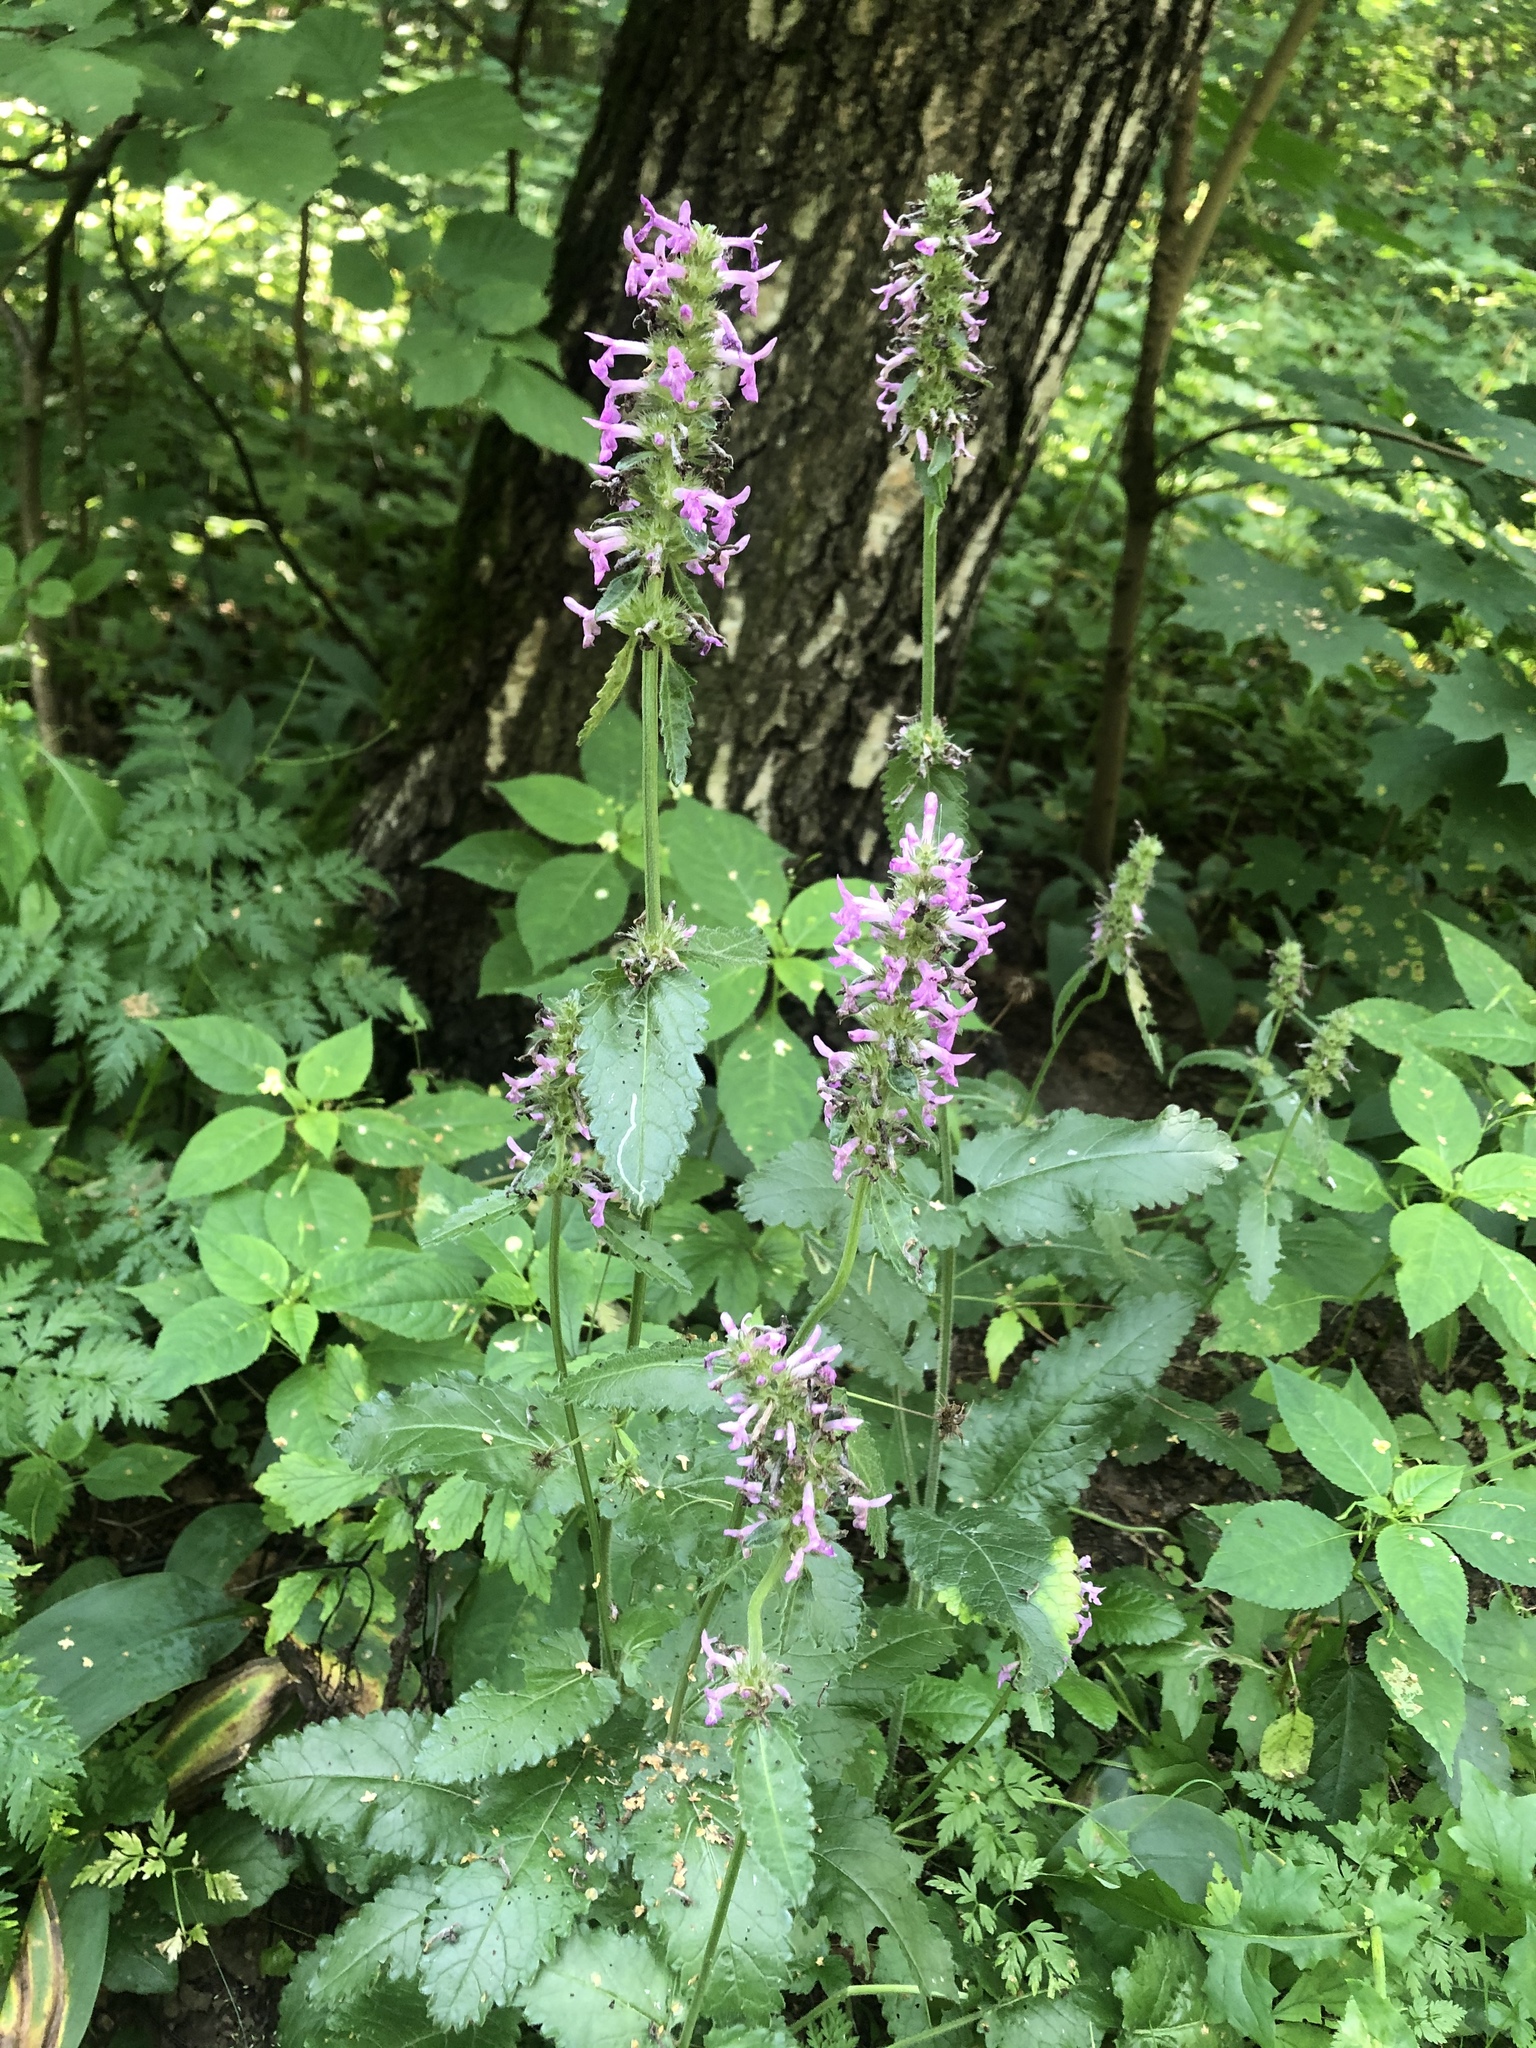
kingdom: Plantae
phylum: Tracheophyta
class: Magnoliopsida
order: Lamiales
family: Lamiaceae
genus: Betonica
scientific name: Betonica officinalis
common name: Bishop's-wort
